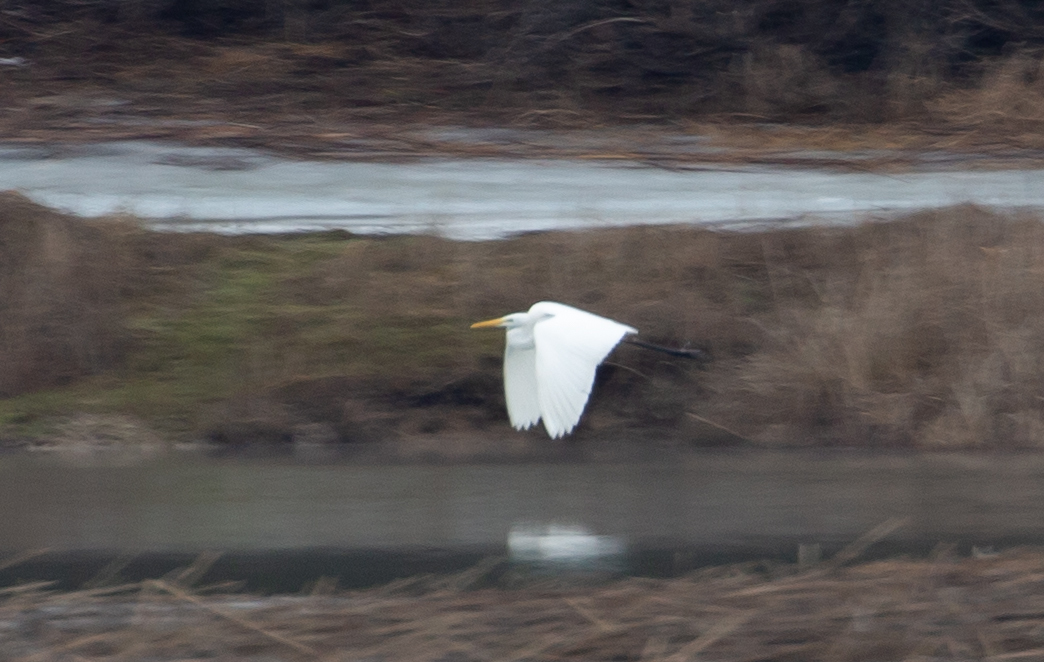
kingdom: Animalia
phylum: Chordata
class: Aves
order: Pelecaniformes
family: Ardeidae
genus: Ardea
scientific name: Ardea alba
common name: Great egret
